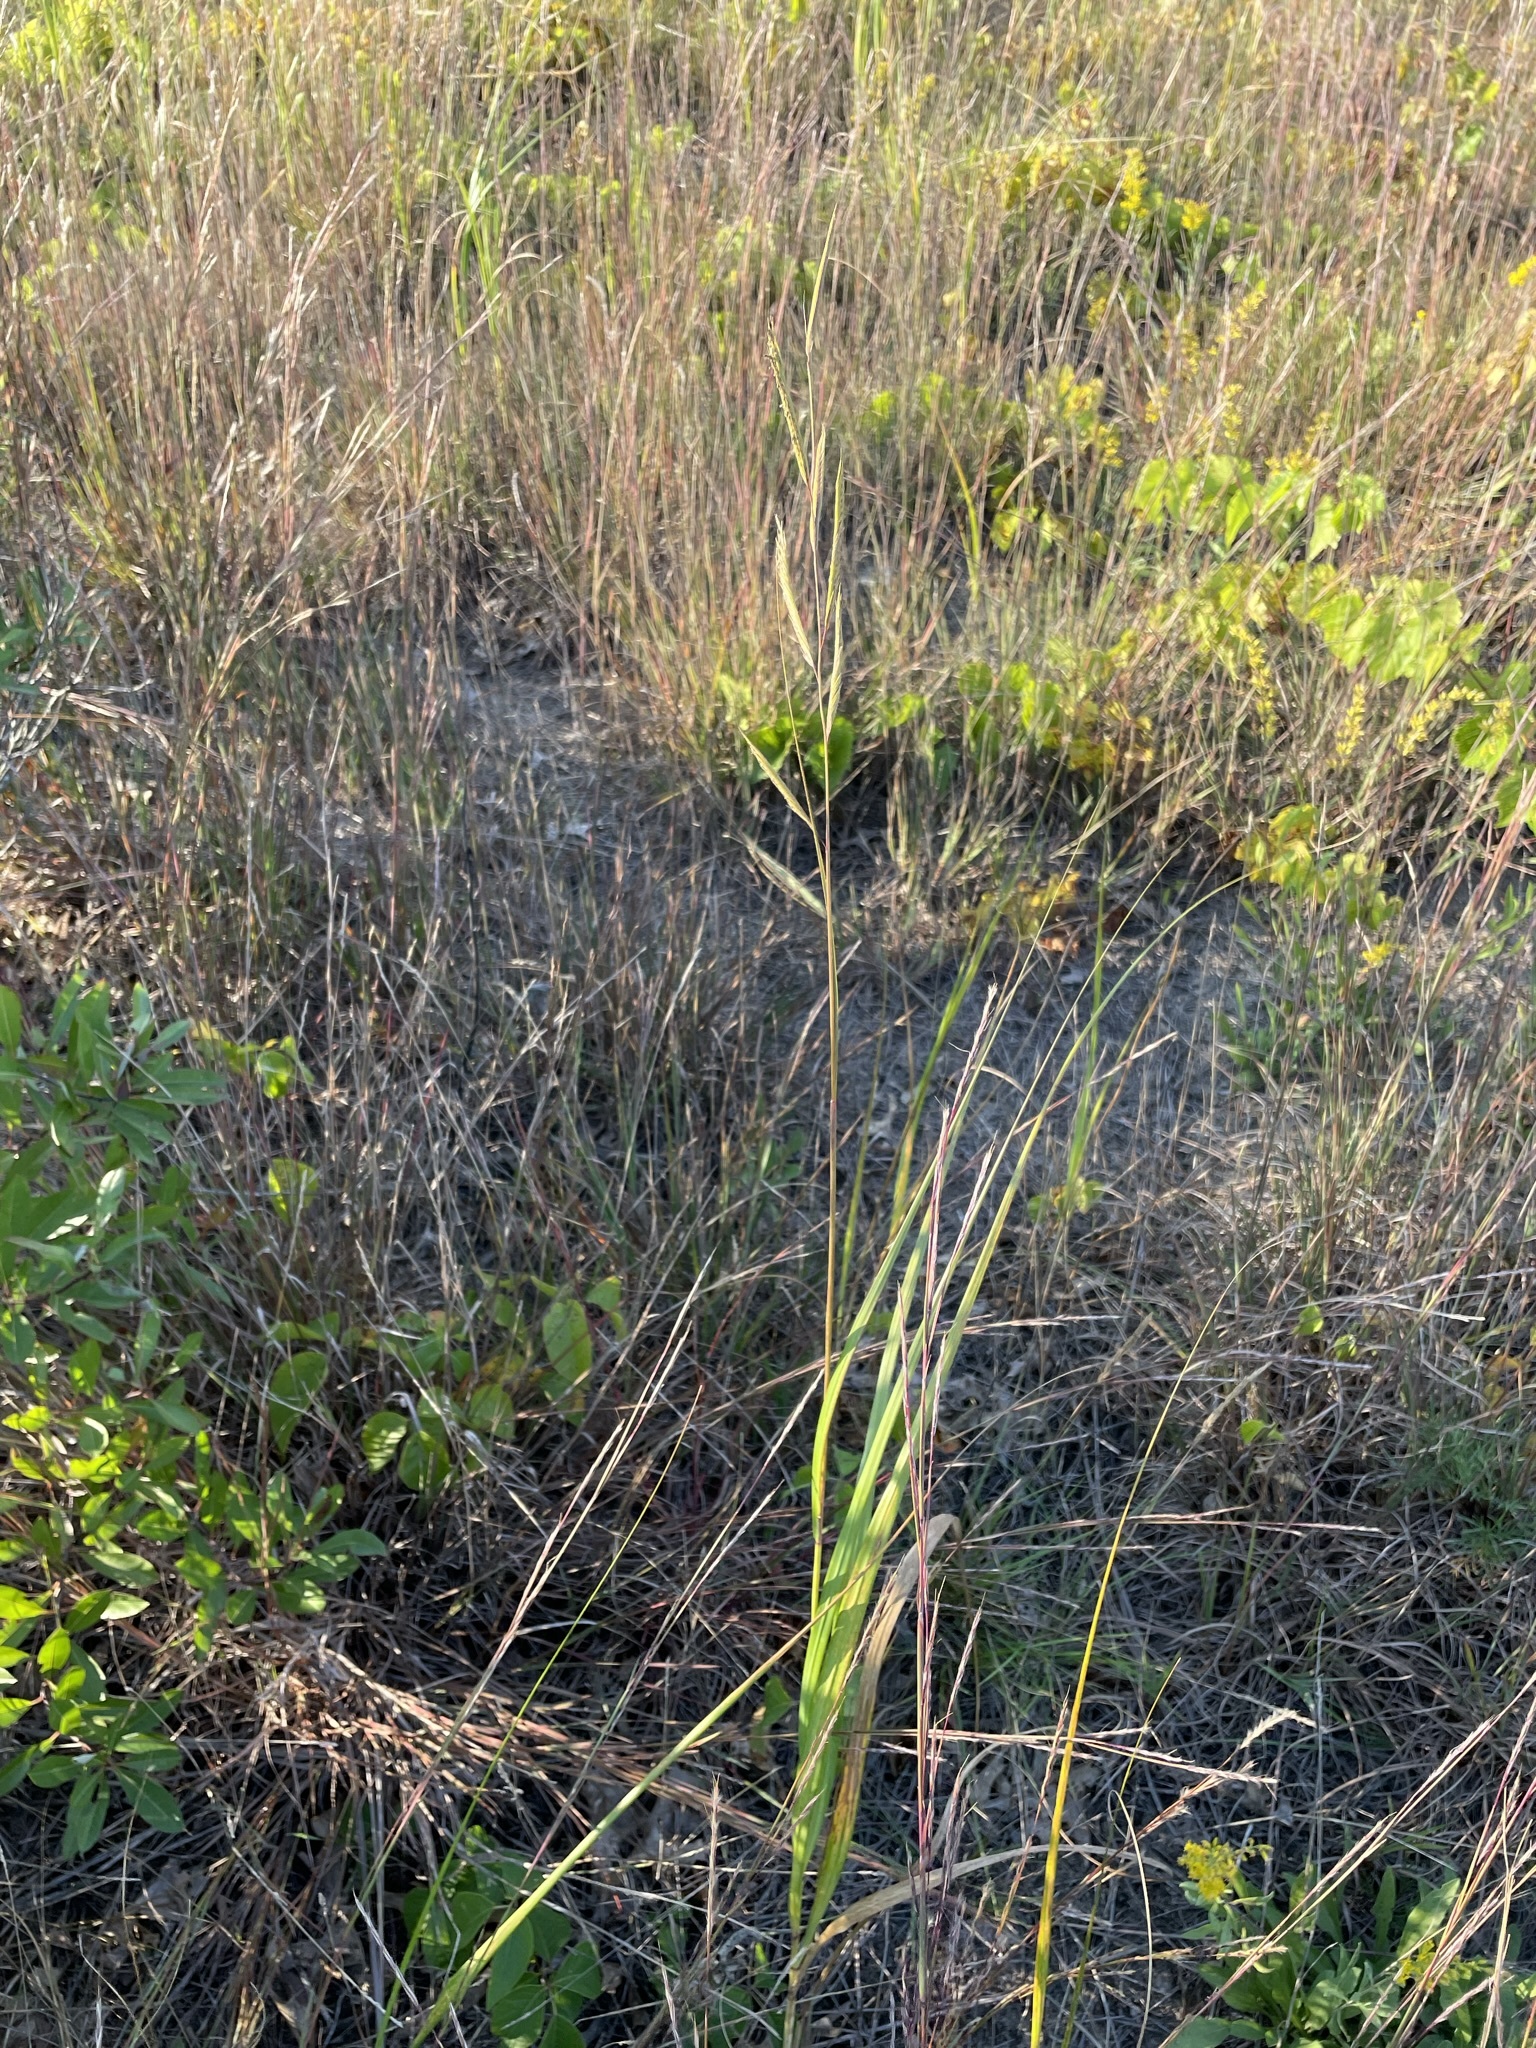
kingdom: Plantae
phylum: Tracheophyta
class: Liliopsida
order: Poales
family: Poaceae
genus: Sporobolus
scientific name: Sporobolus michauxianus
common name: Freshwater cordgrass
